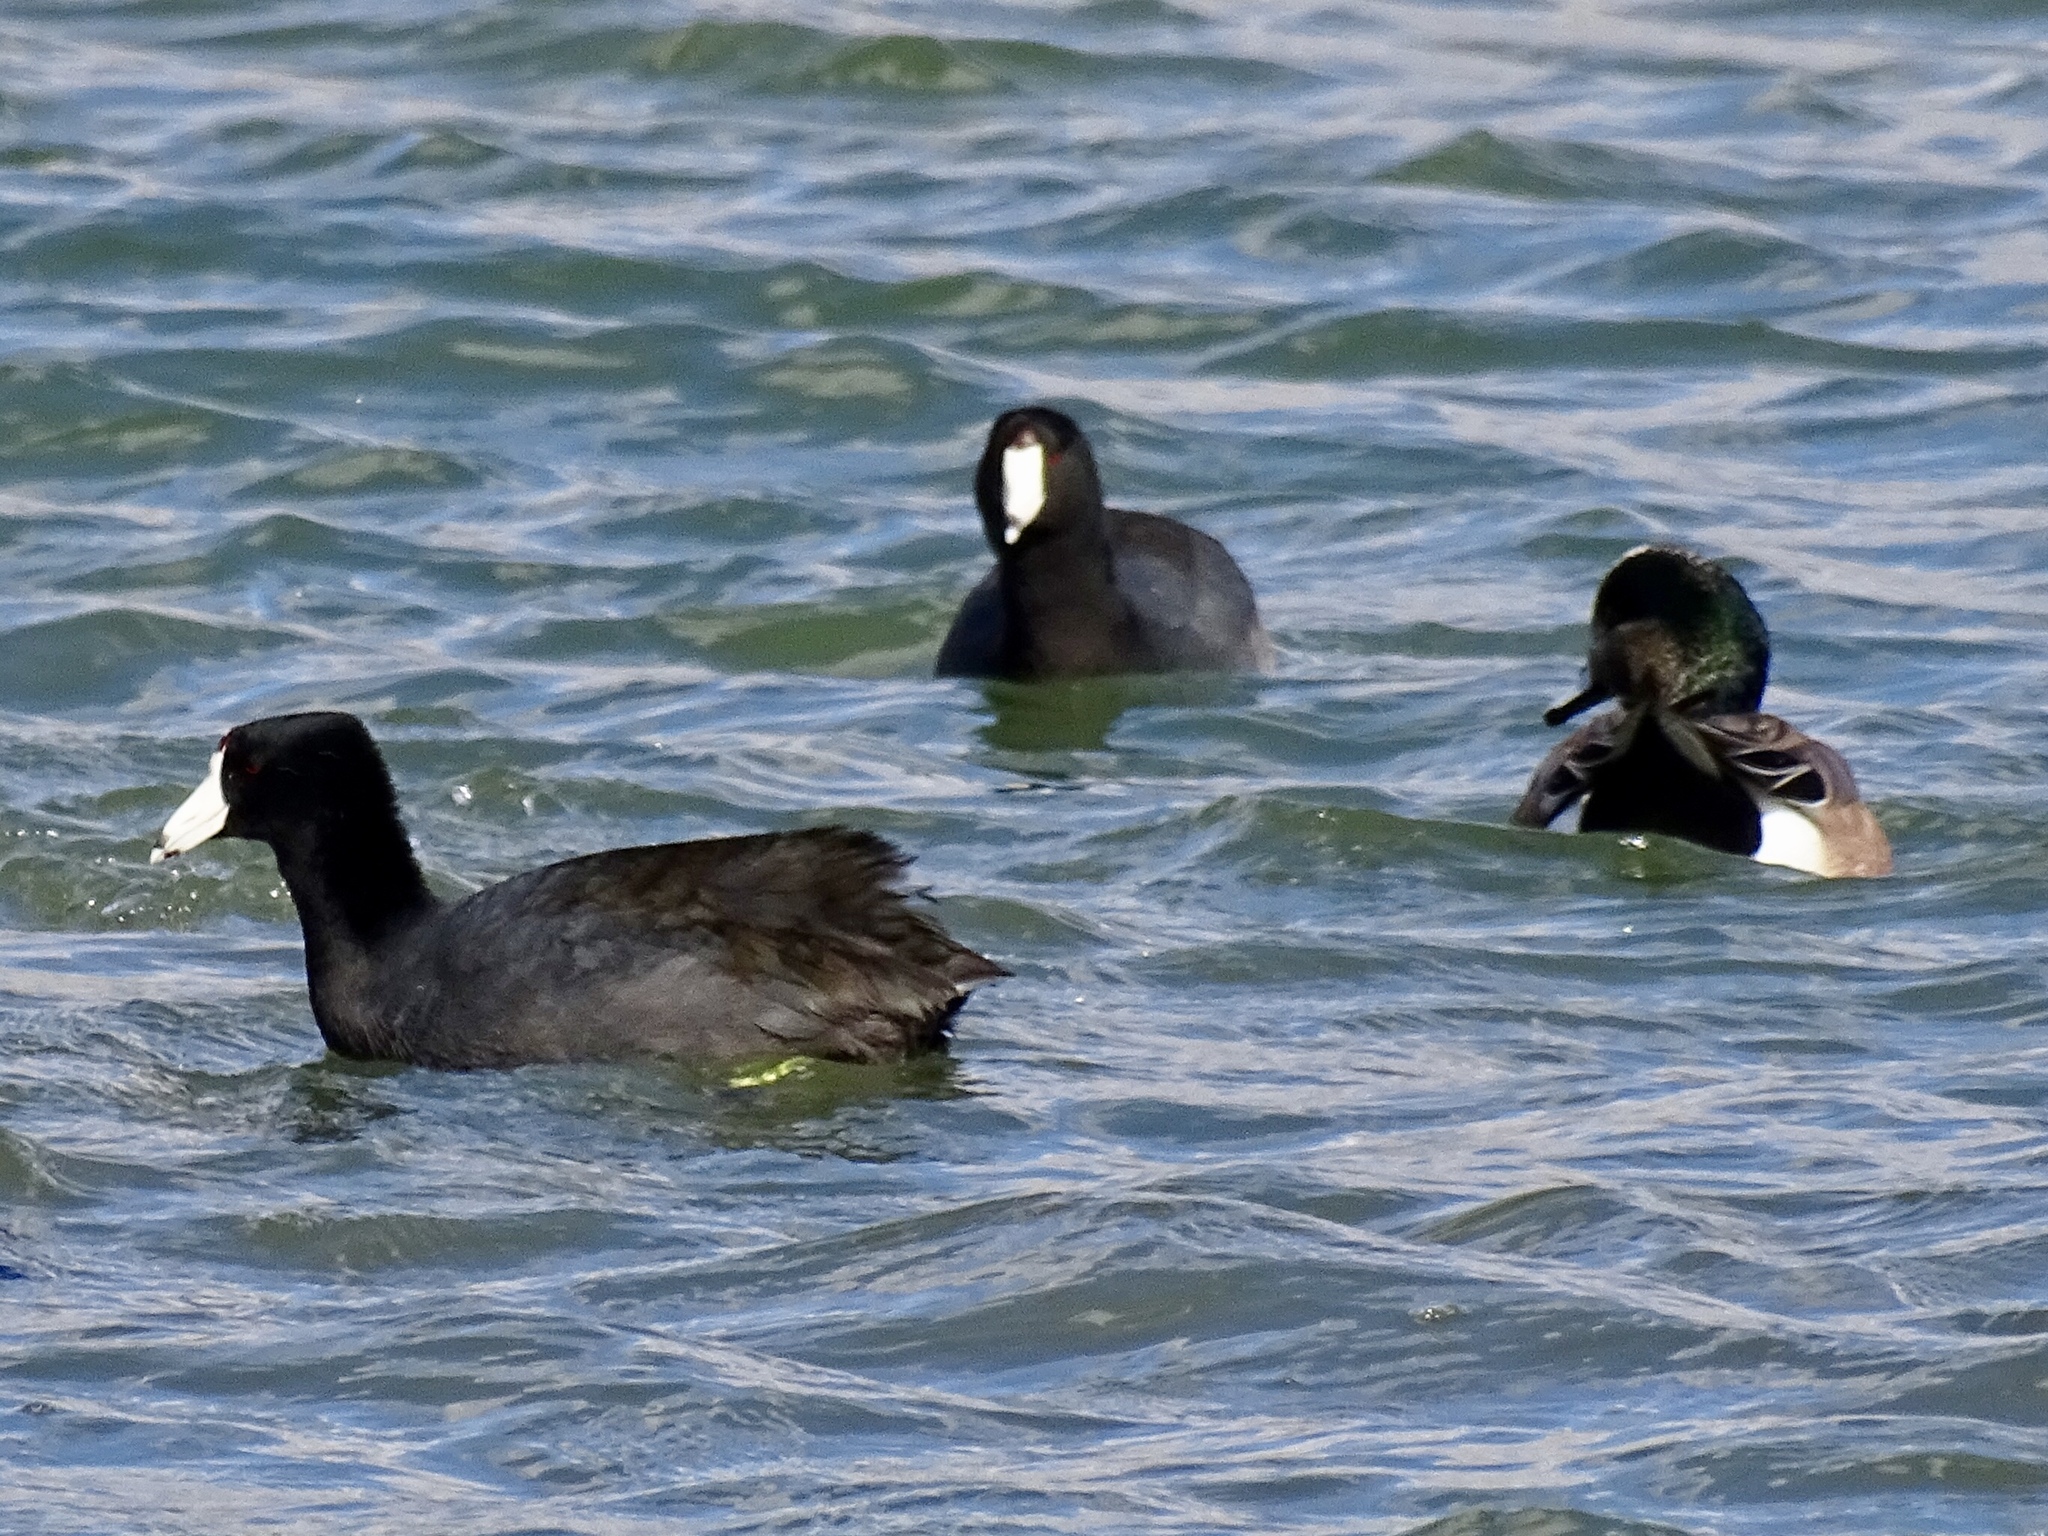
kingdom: Animalia
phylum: Chordata
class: Aves
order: Gruiformes
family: Rallidae
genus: Fulica
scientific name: Fulica americana
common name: American coot
